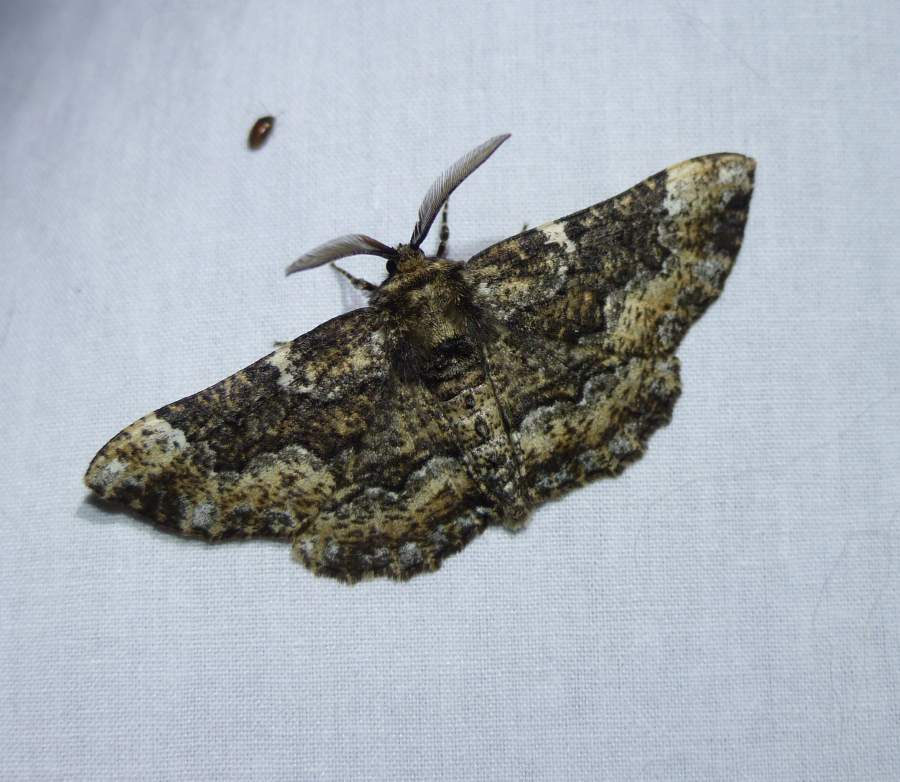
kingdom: Animalia
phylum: Arthropoda
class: Insecta
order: Lepidoptera
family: Geometridae
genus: Phaeoura
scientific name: Phaeoura quernaria
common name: Oak beauty
